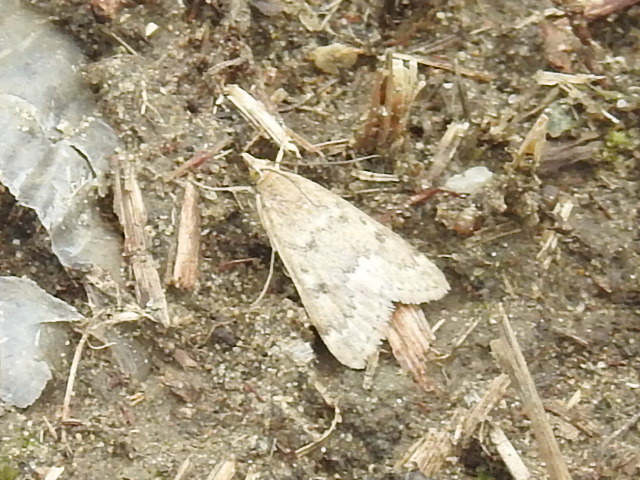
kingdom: Animalia
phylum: Arthropoda
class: Insecta
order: Lepidoptera
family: Crambidae
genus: Udea
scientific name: Udea rubigalis
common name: Celery leaftier moth
